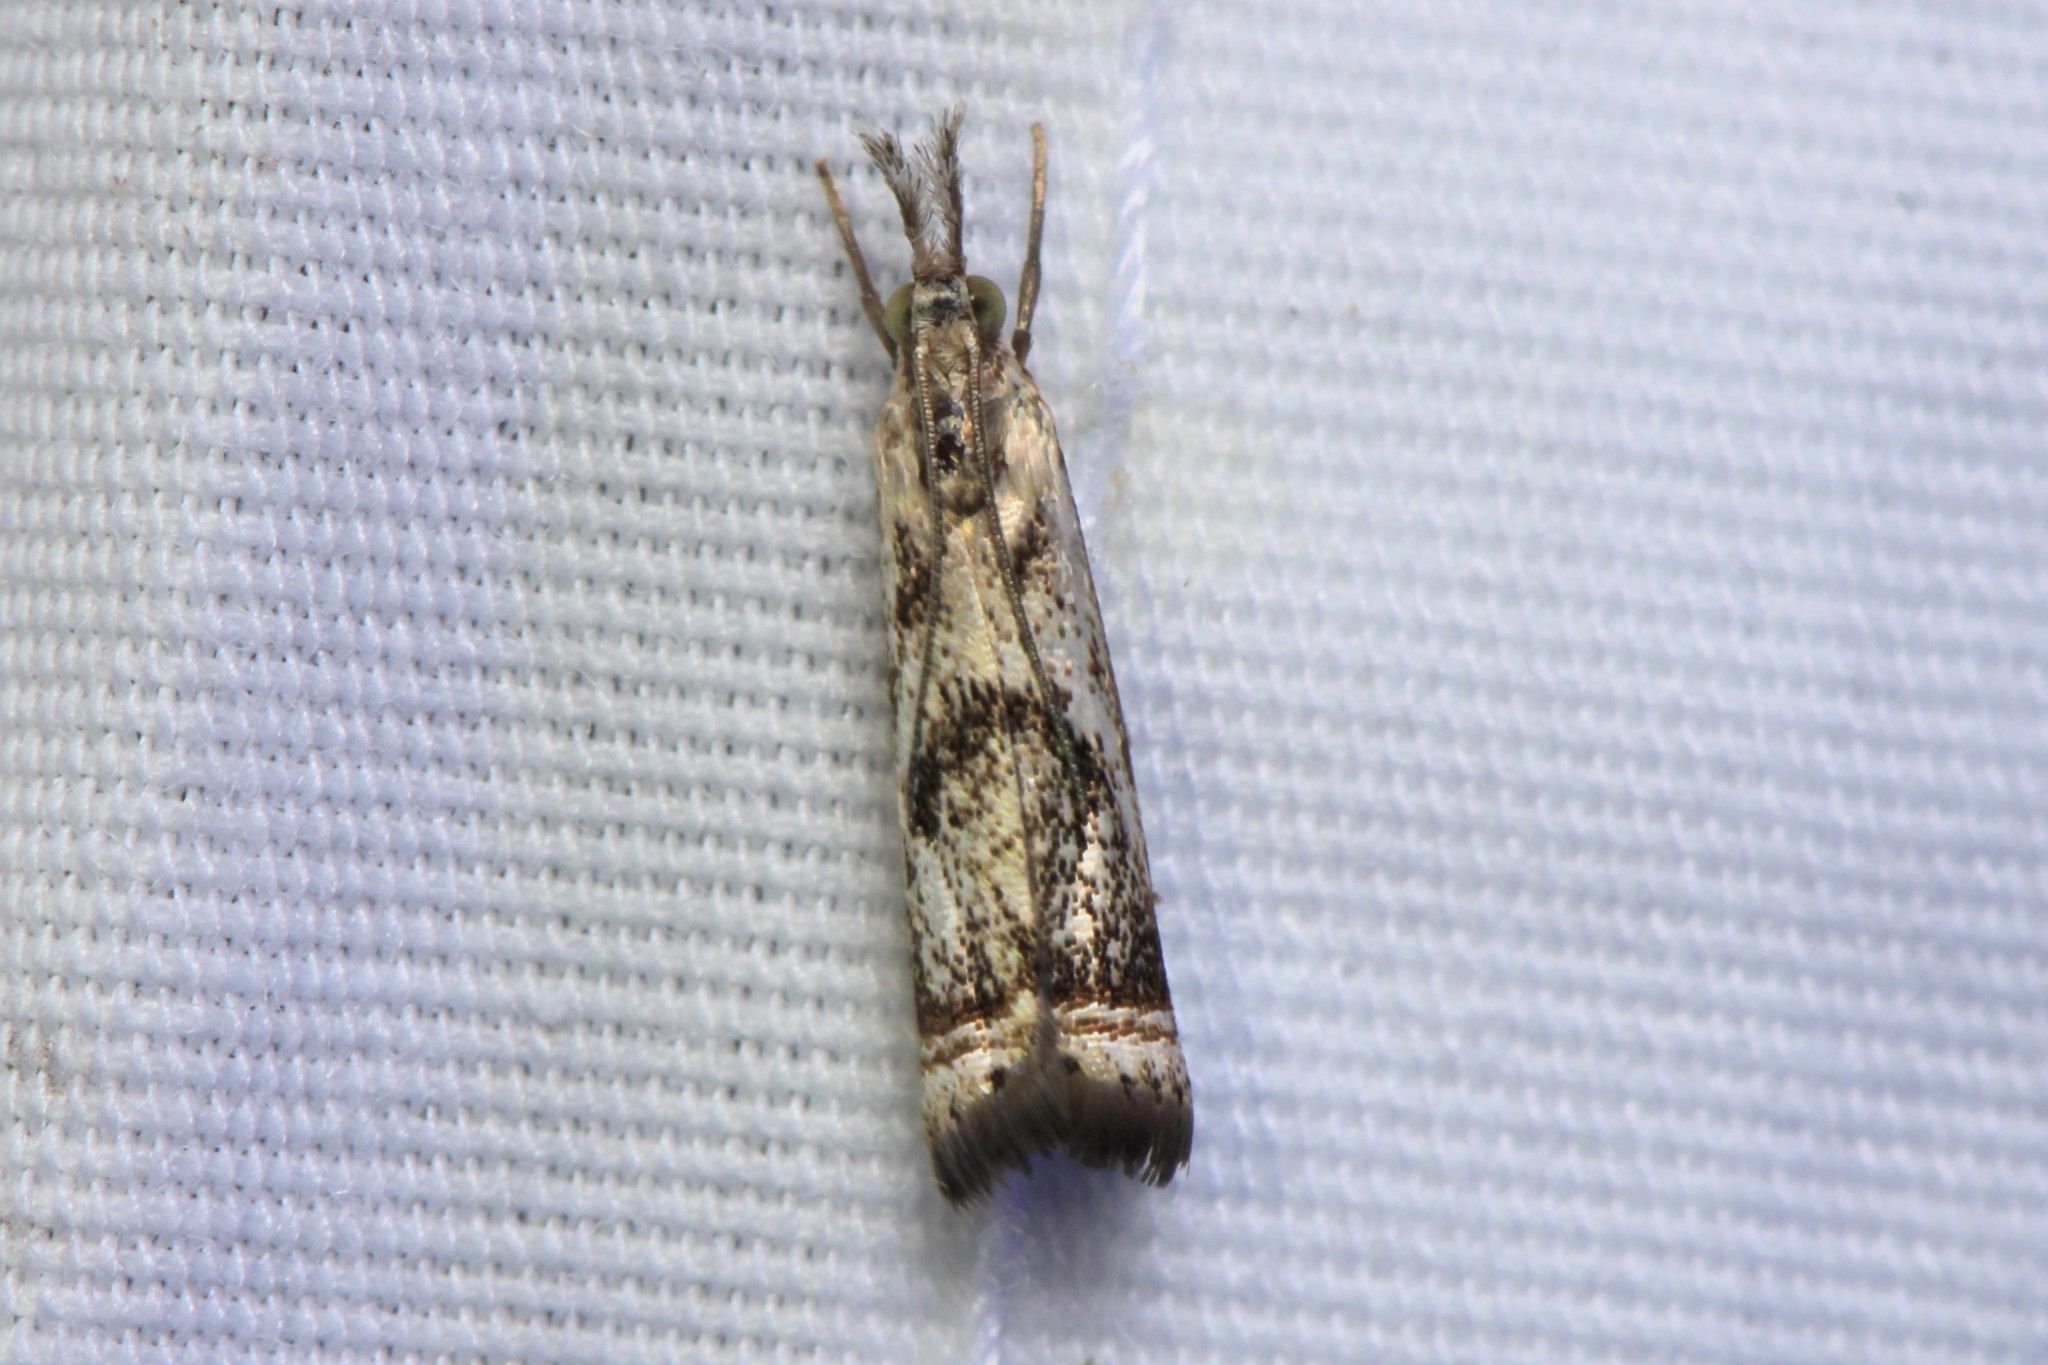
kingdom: Animalia
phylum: Arthropoda
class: Insecta
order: Lepidoptera
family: Crambidae
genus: Microcrambus
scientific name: Microcrambus elegans
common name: Elegant grass-veneer
